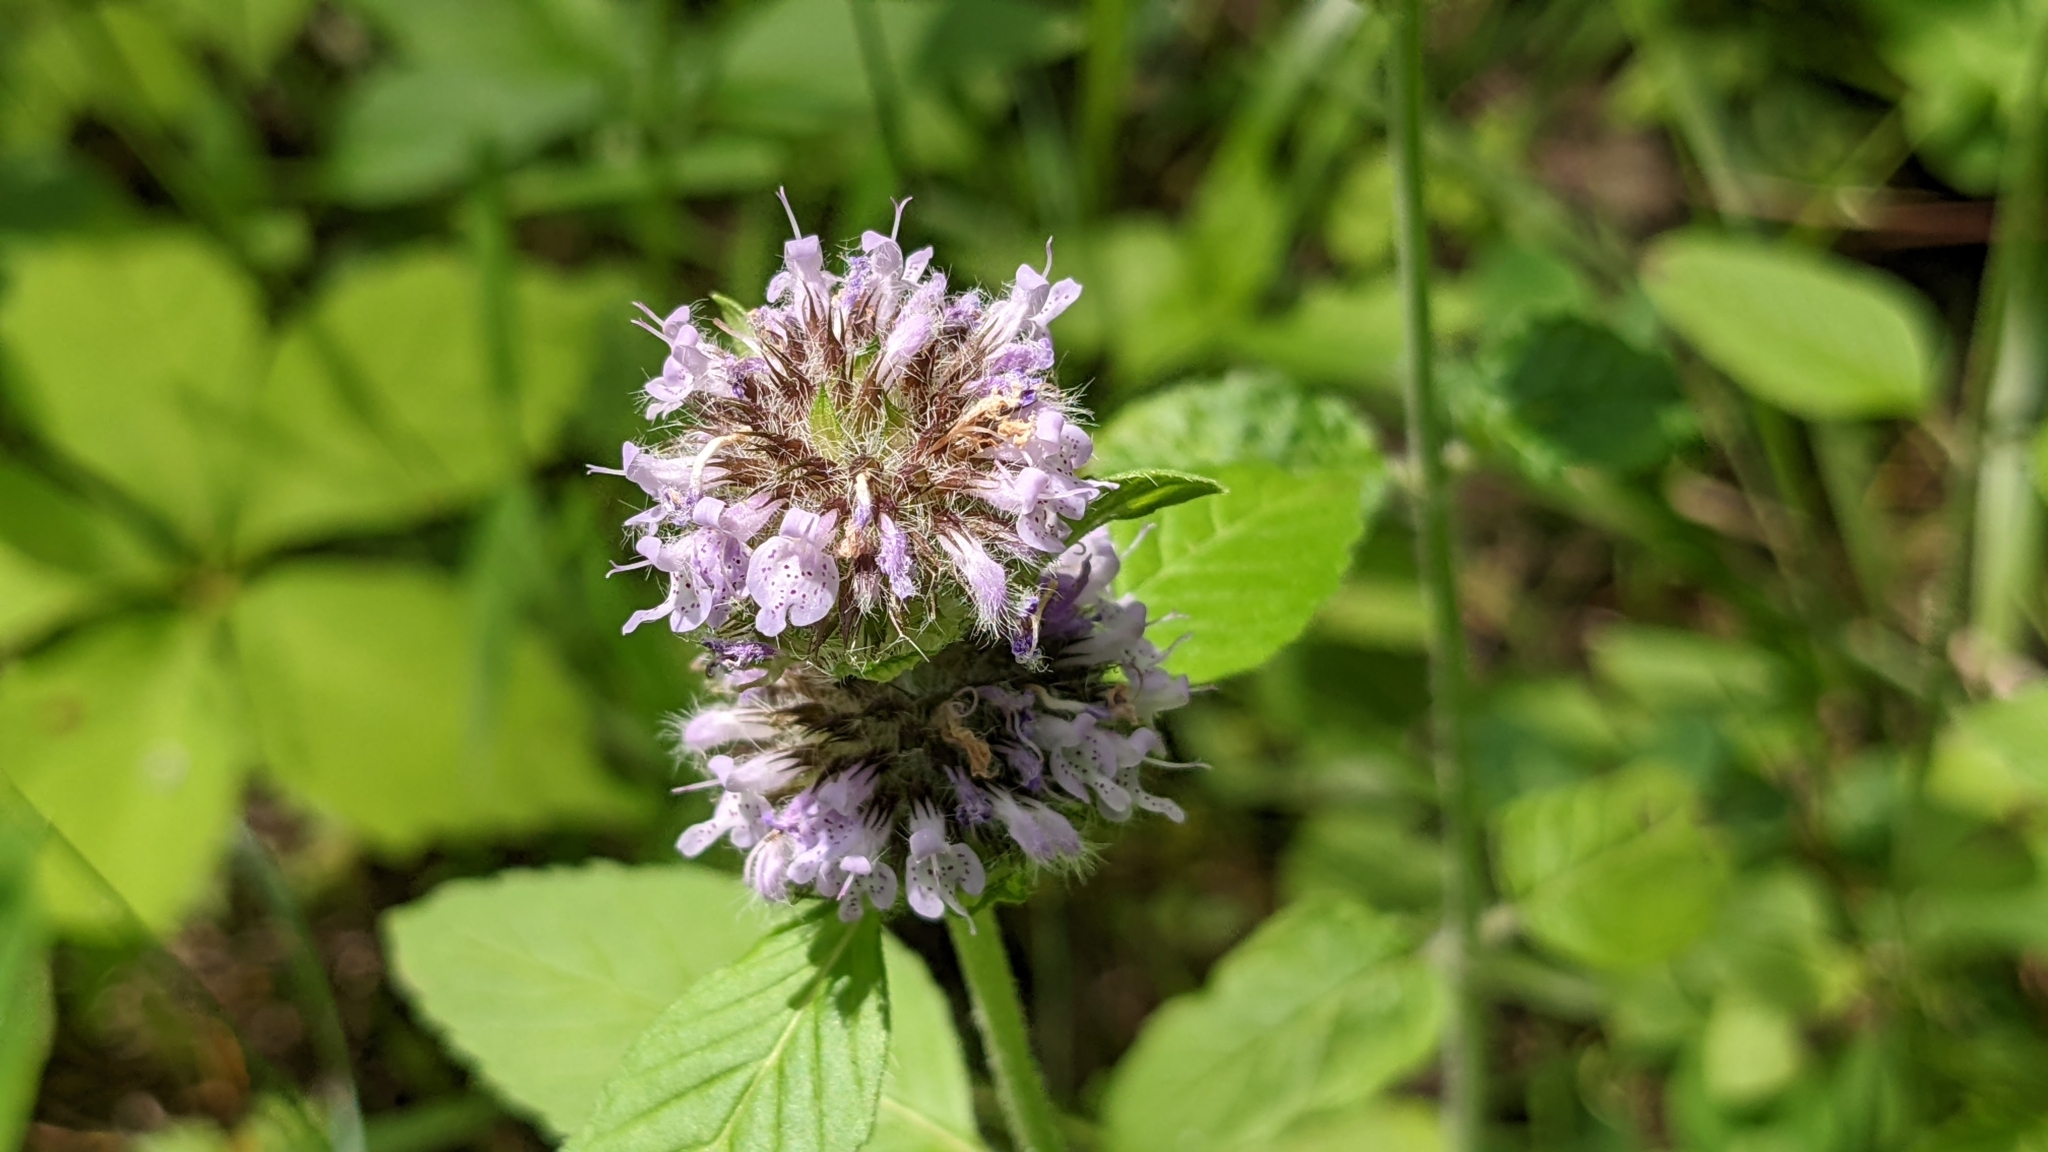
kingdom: Plantae
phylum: Tracheophyta
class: Magnoliopsida
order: Lamiales
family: Lamiaceae
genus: Blephilia
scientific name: Blephilia ciliata
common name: Downy blephilia
